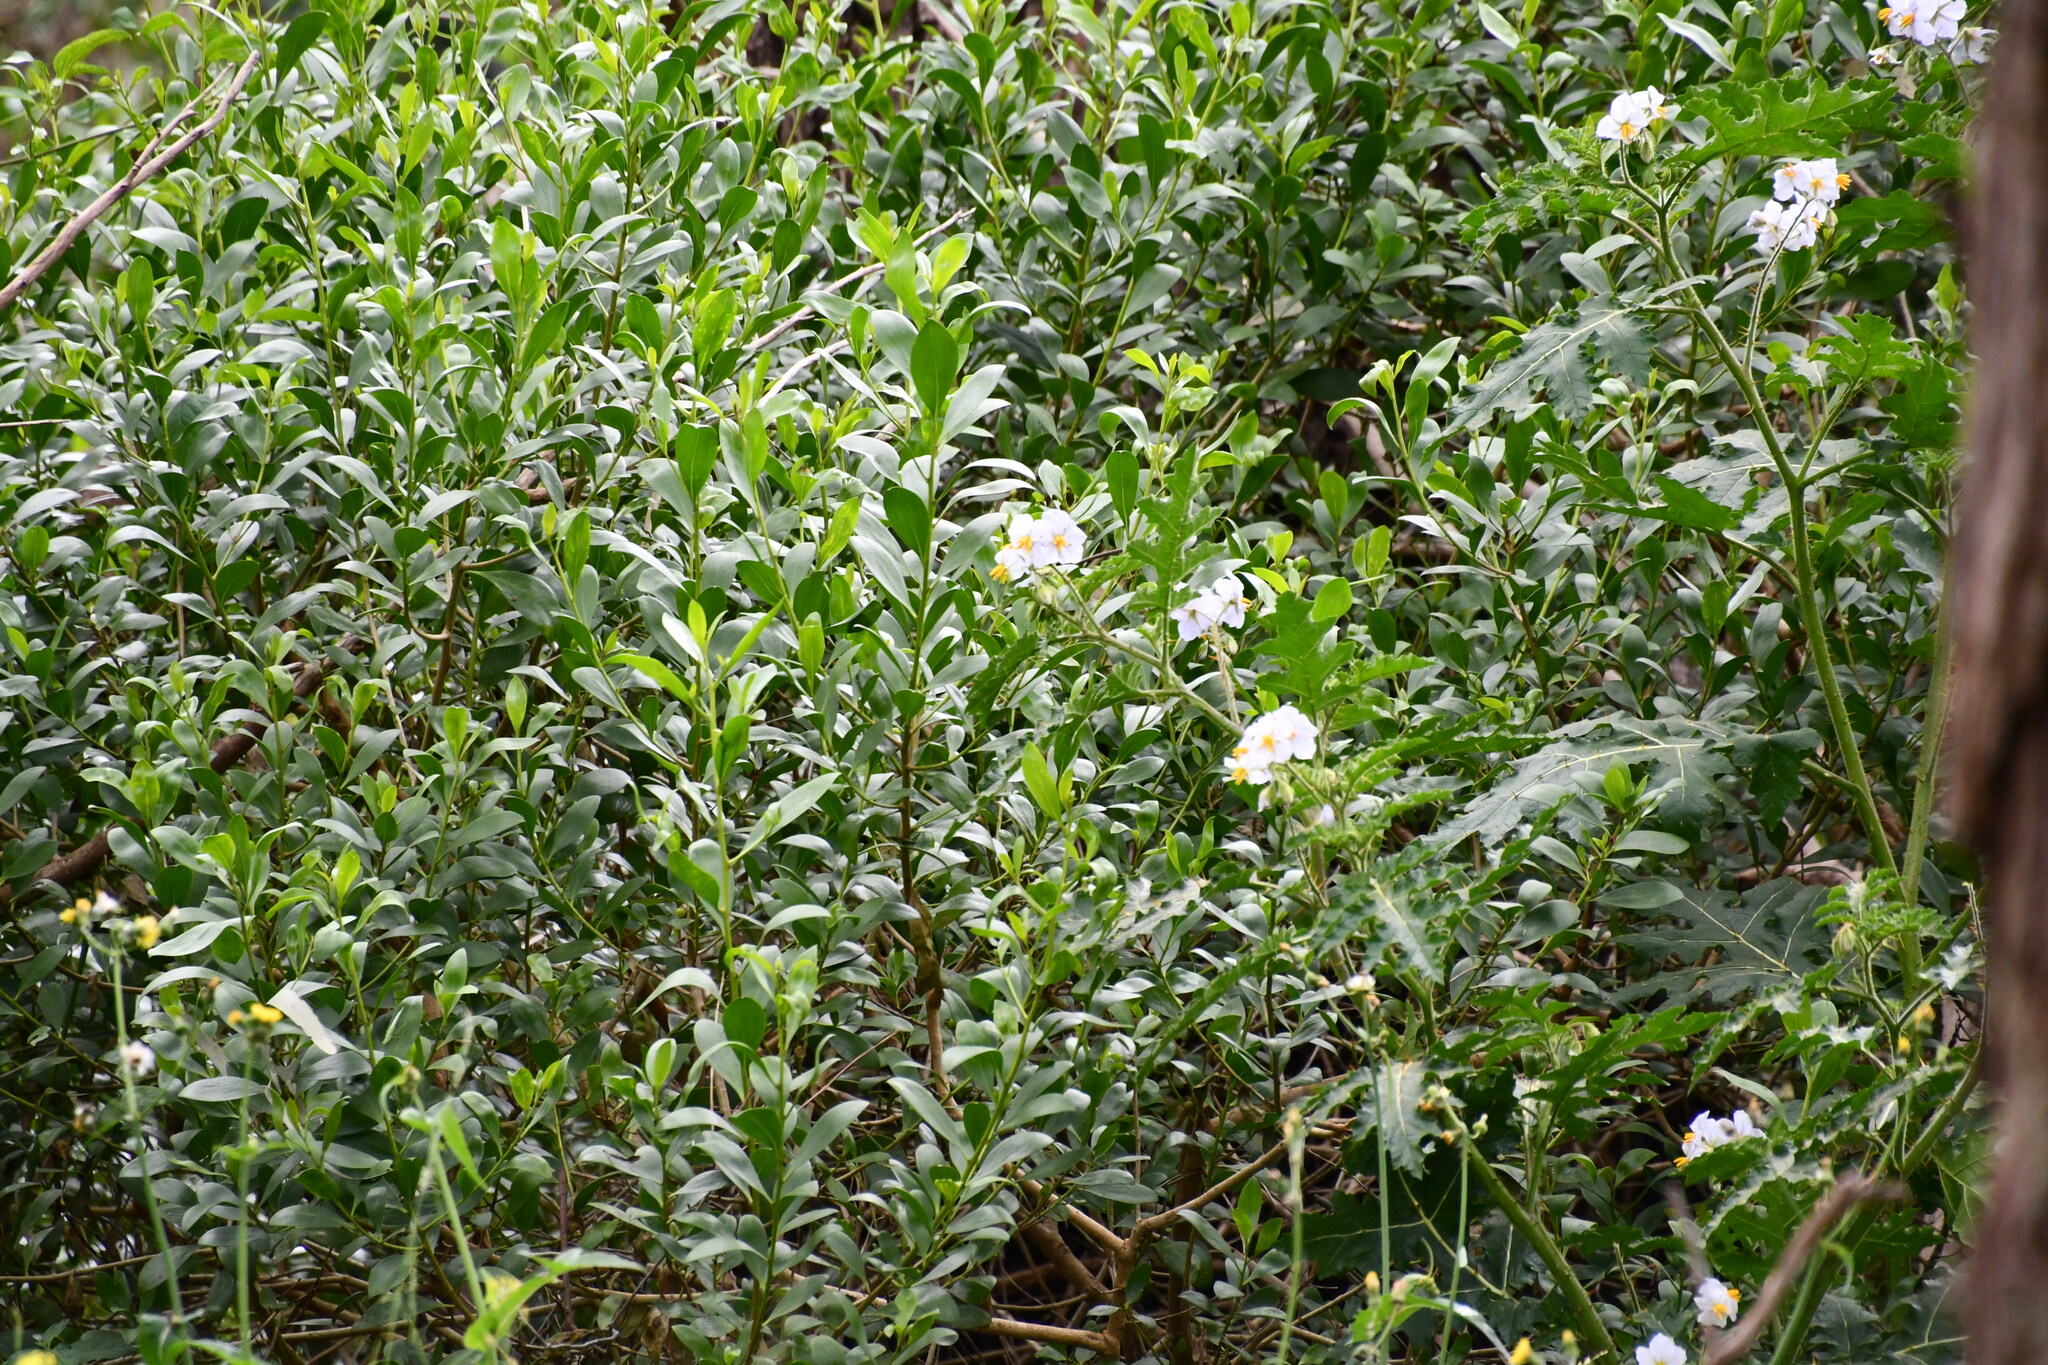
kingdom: Plantae
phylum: Tracheophyta
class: Magnoliopsida
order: Solanales
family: Solanaceae
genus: Solanum
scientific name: Solanum sisymbriifolium
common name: Red buffalo-bur
